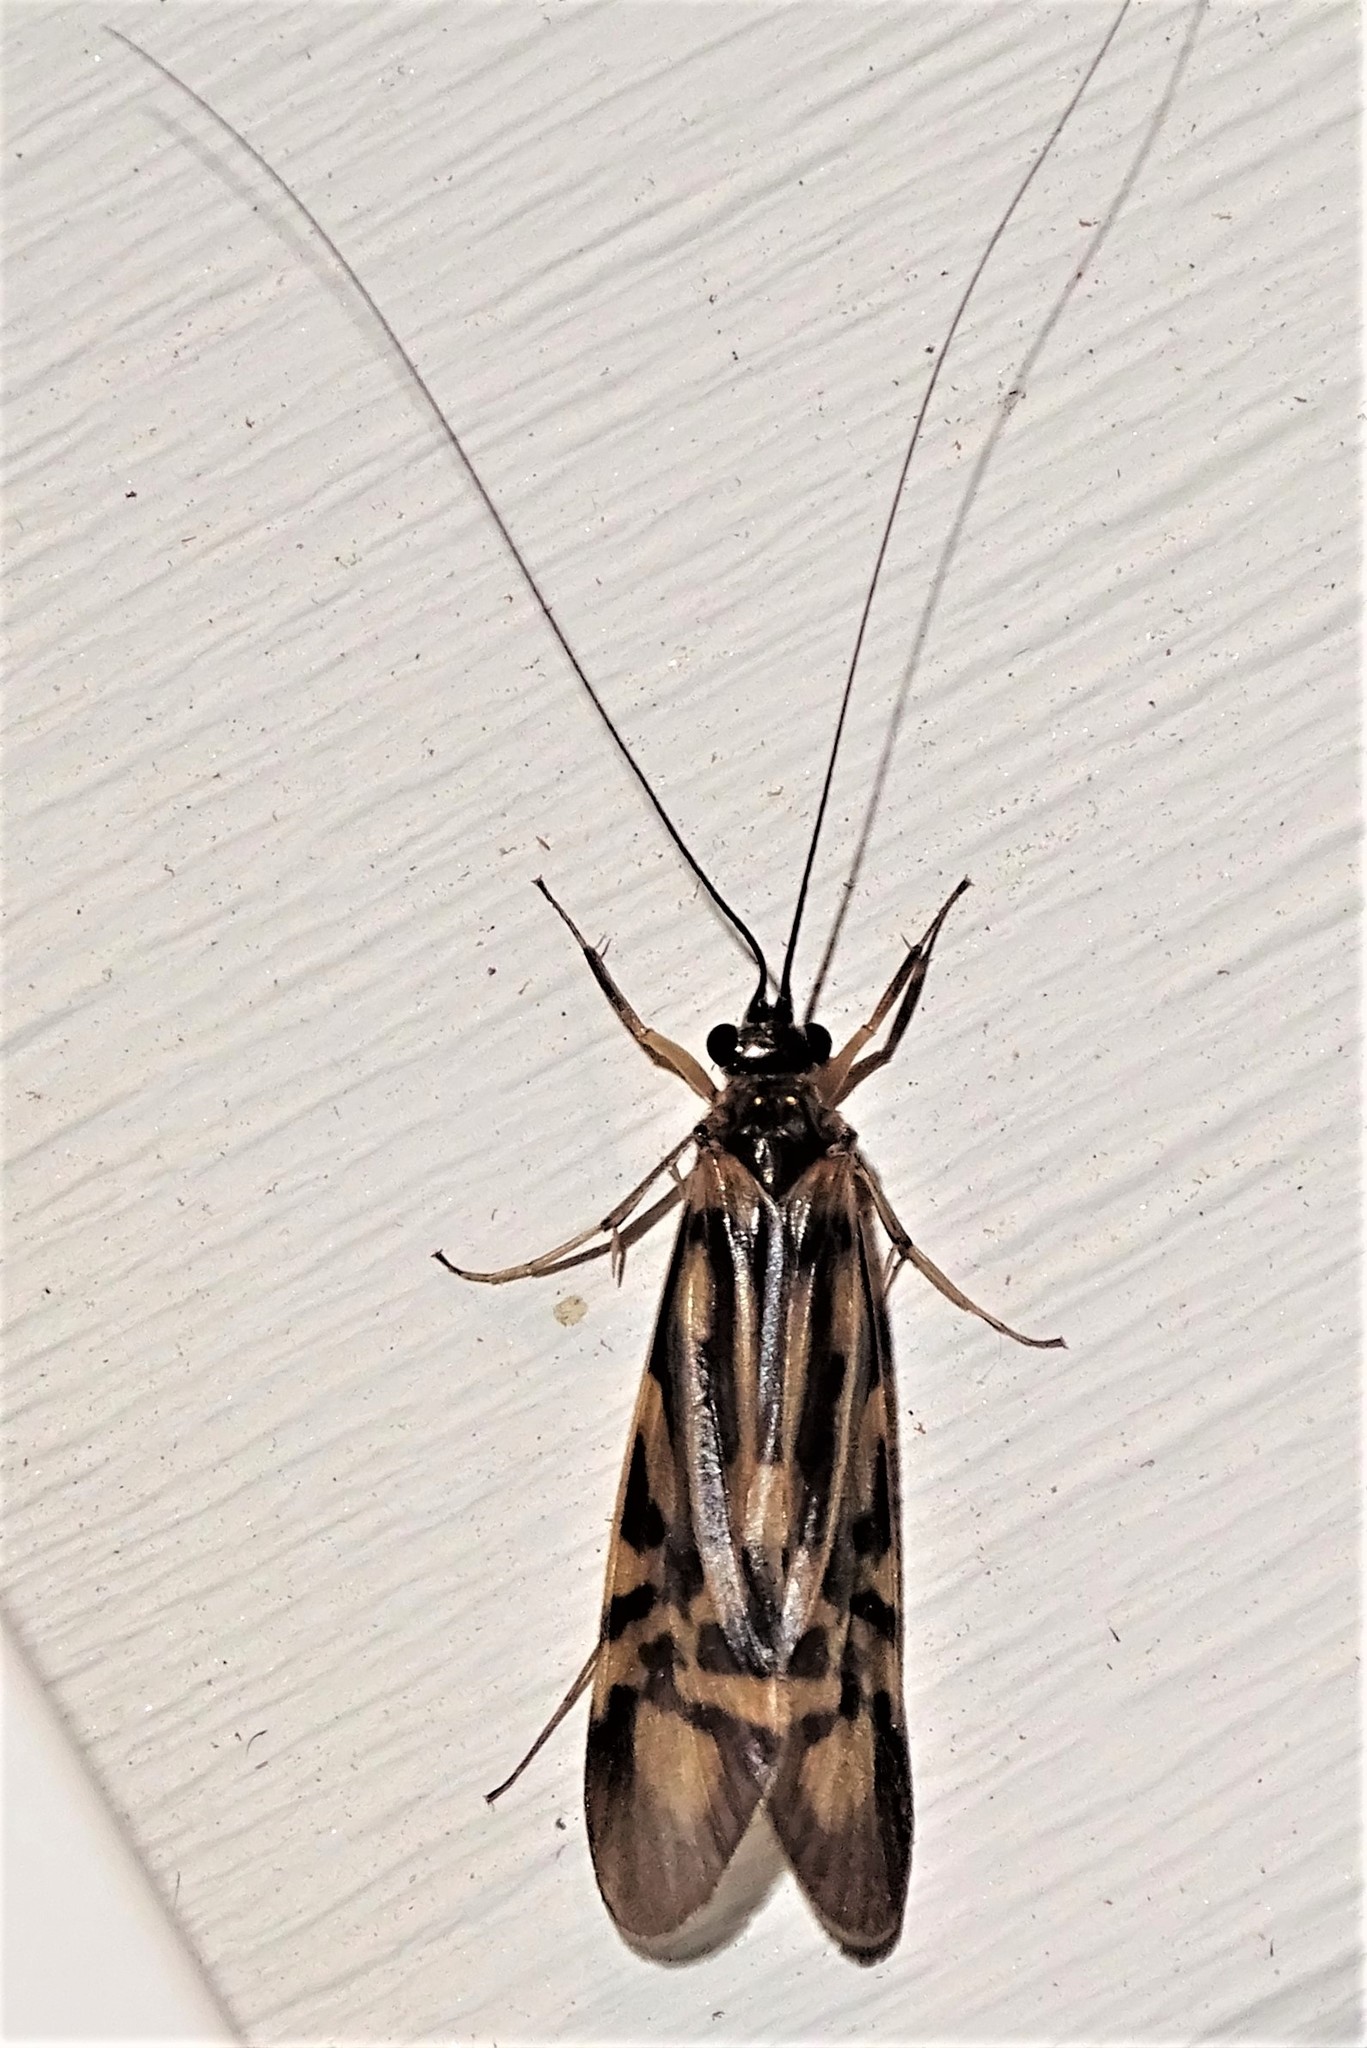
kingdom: Animalia
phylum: Arthropoda
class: Insecta
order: Trichoptera
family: Hydropsychidae
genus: Macrostemum
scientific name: Macrostemum zebratum
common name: Zebra caddisfly
